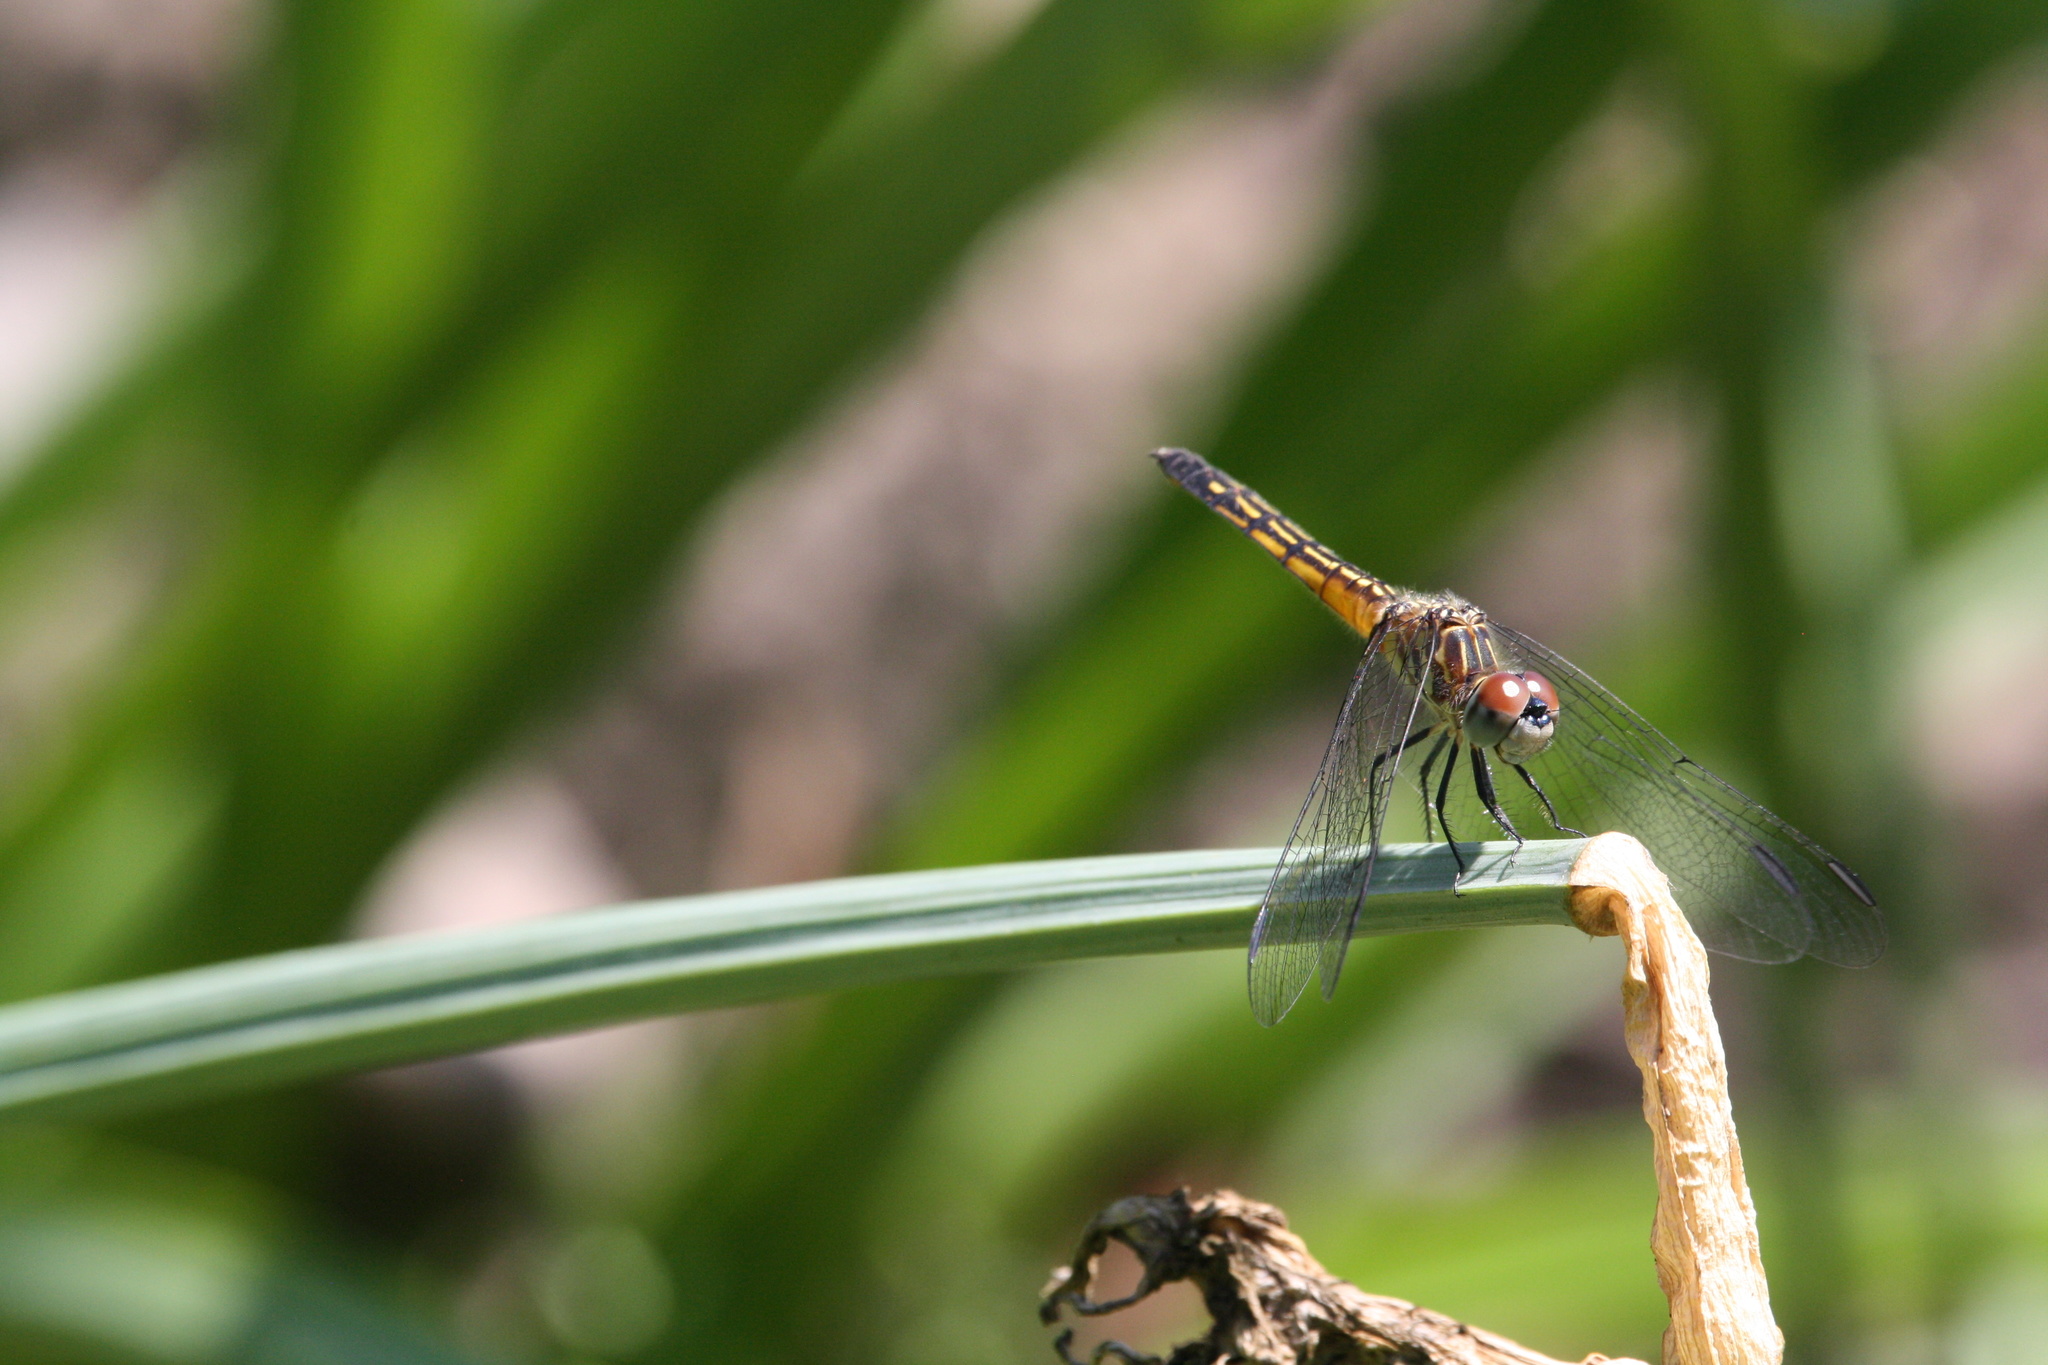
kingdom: Animalia
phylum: Arthropoda
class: Insecta
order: Odonata
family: Libellulidae
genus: Pachydiplax
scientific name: Pachydiplax longipennis
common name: Blue dasher
